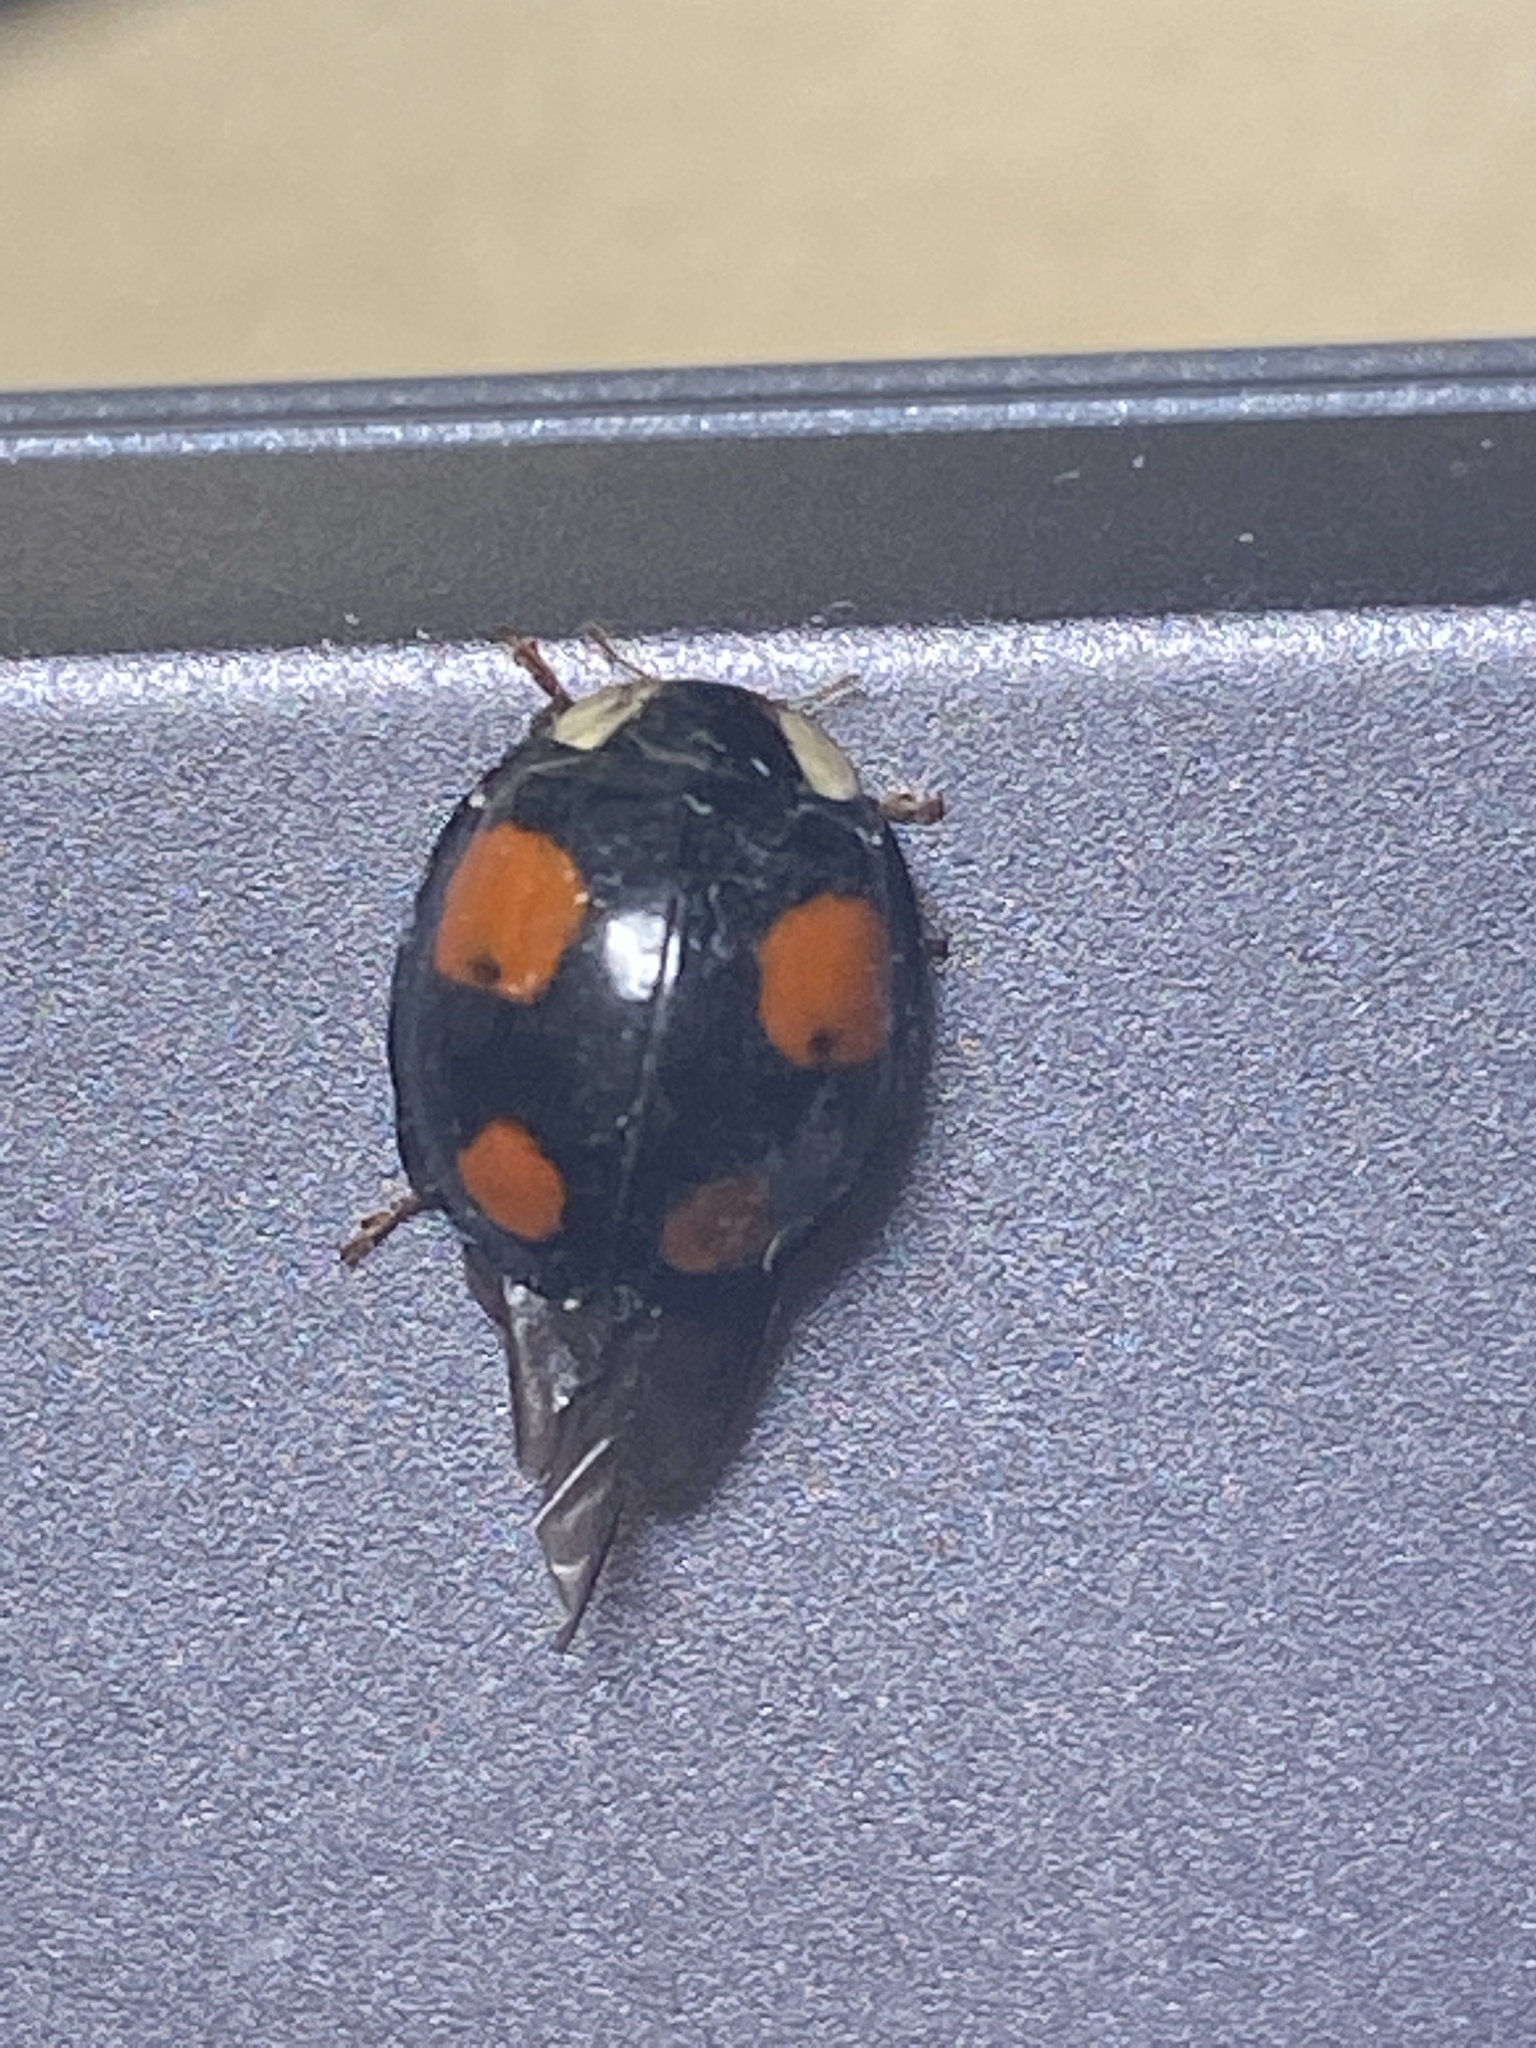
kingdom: Animalia
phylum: Arthropoda
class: Insecta
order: Coleoptera
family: Coccinellidae
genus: Harmonia
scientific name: Harmonia axyridis
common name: Harlequin ladybird
